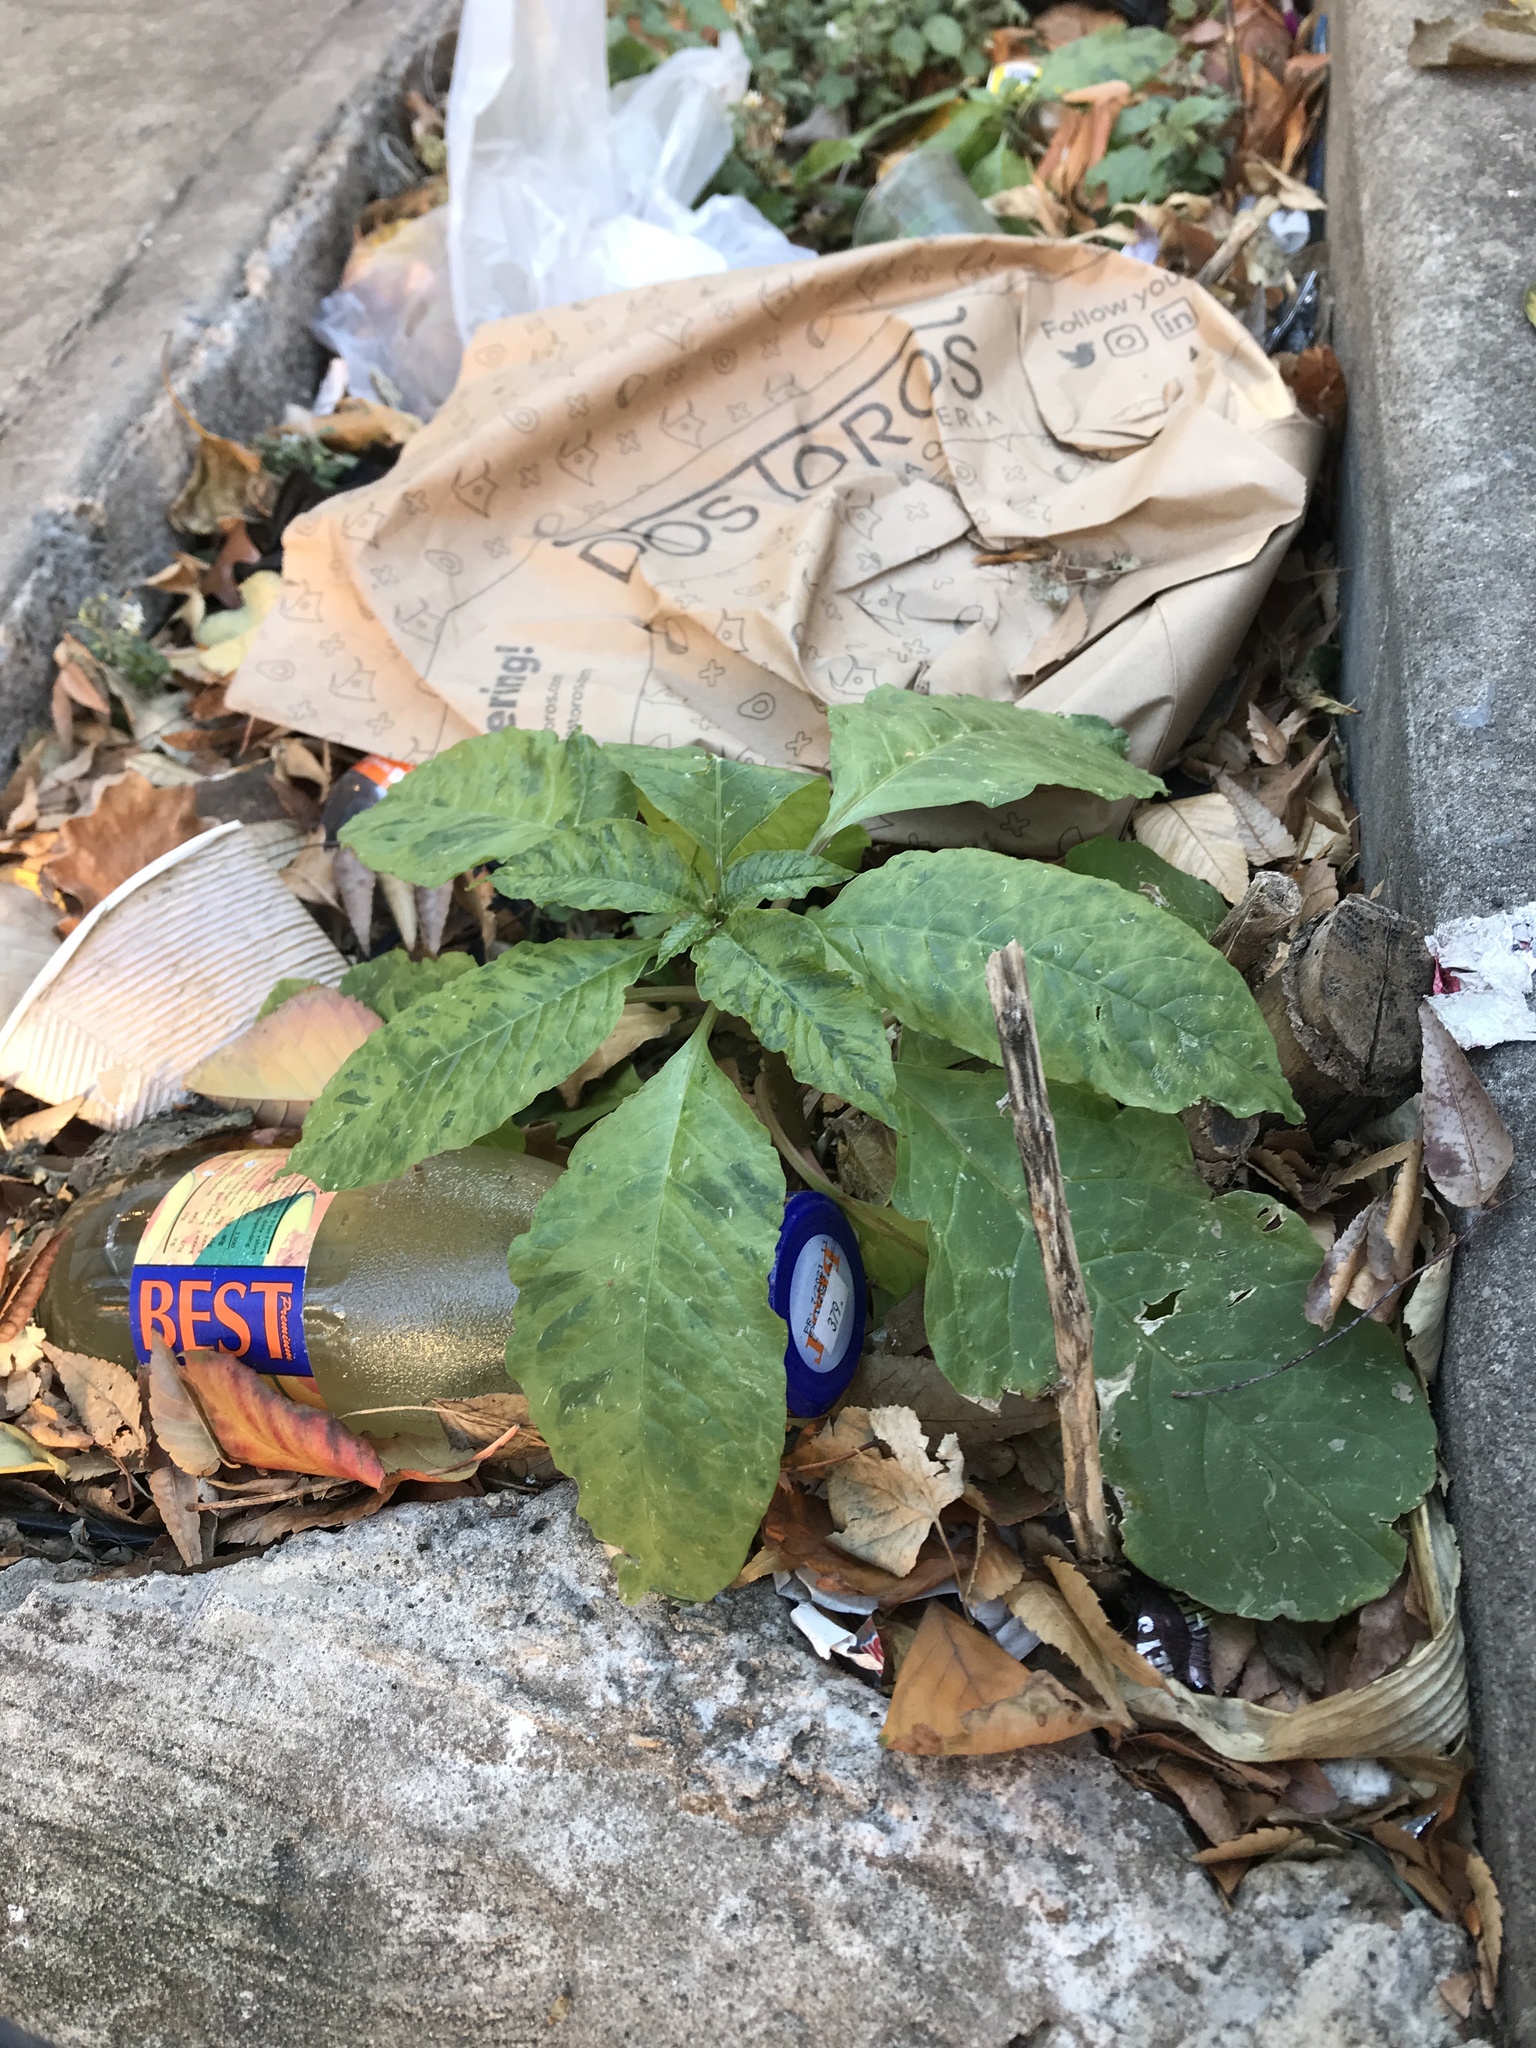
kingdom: Viruses
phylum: Pisuviricota
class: Stelpaviricetes
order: Patatavirales
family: Potyviridae
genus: Potyvirus
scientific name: Potyvirus Pokeweed mosaic virus
